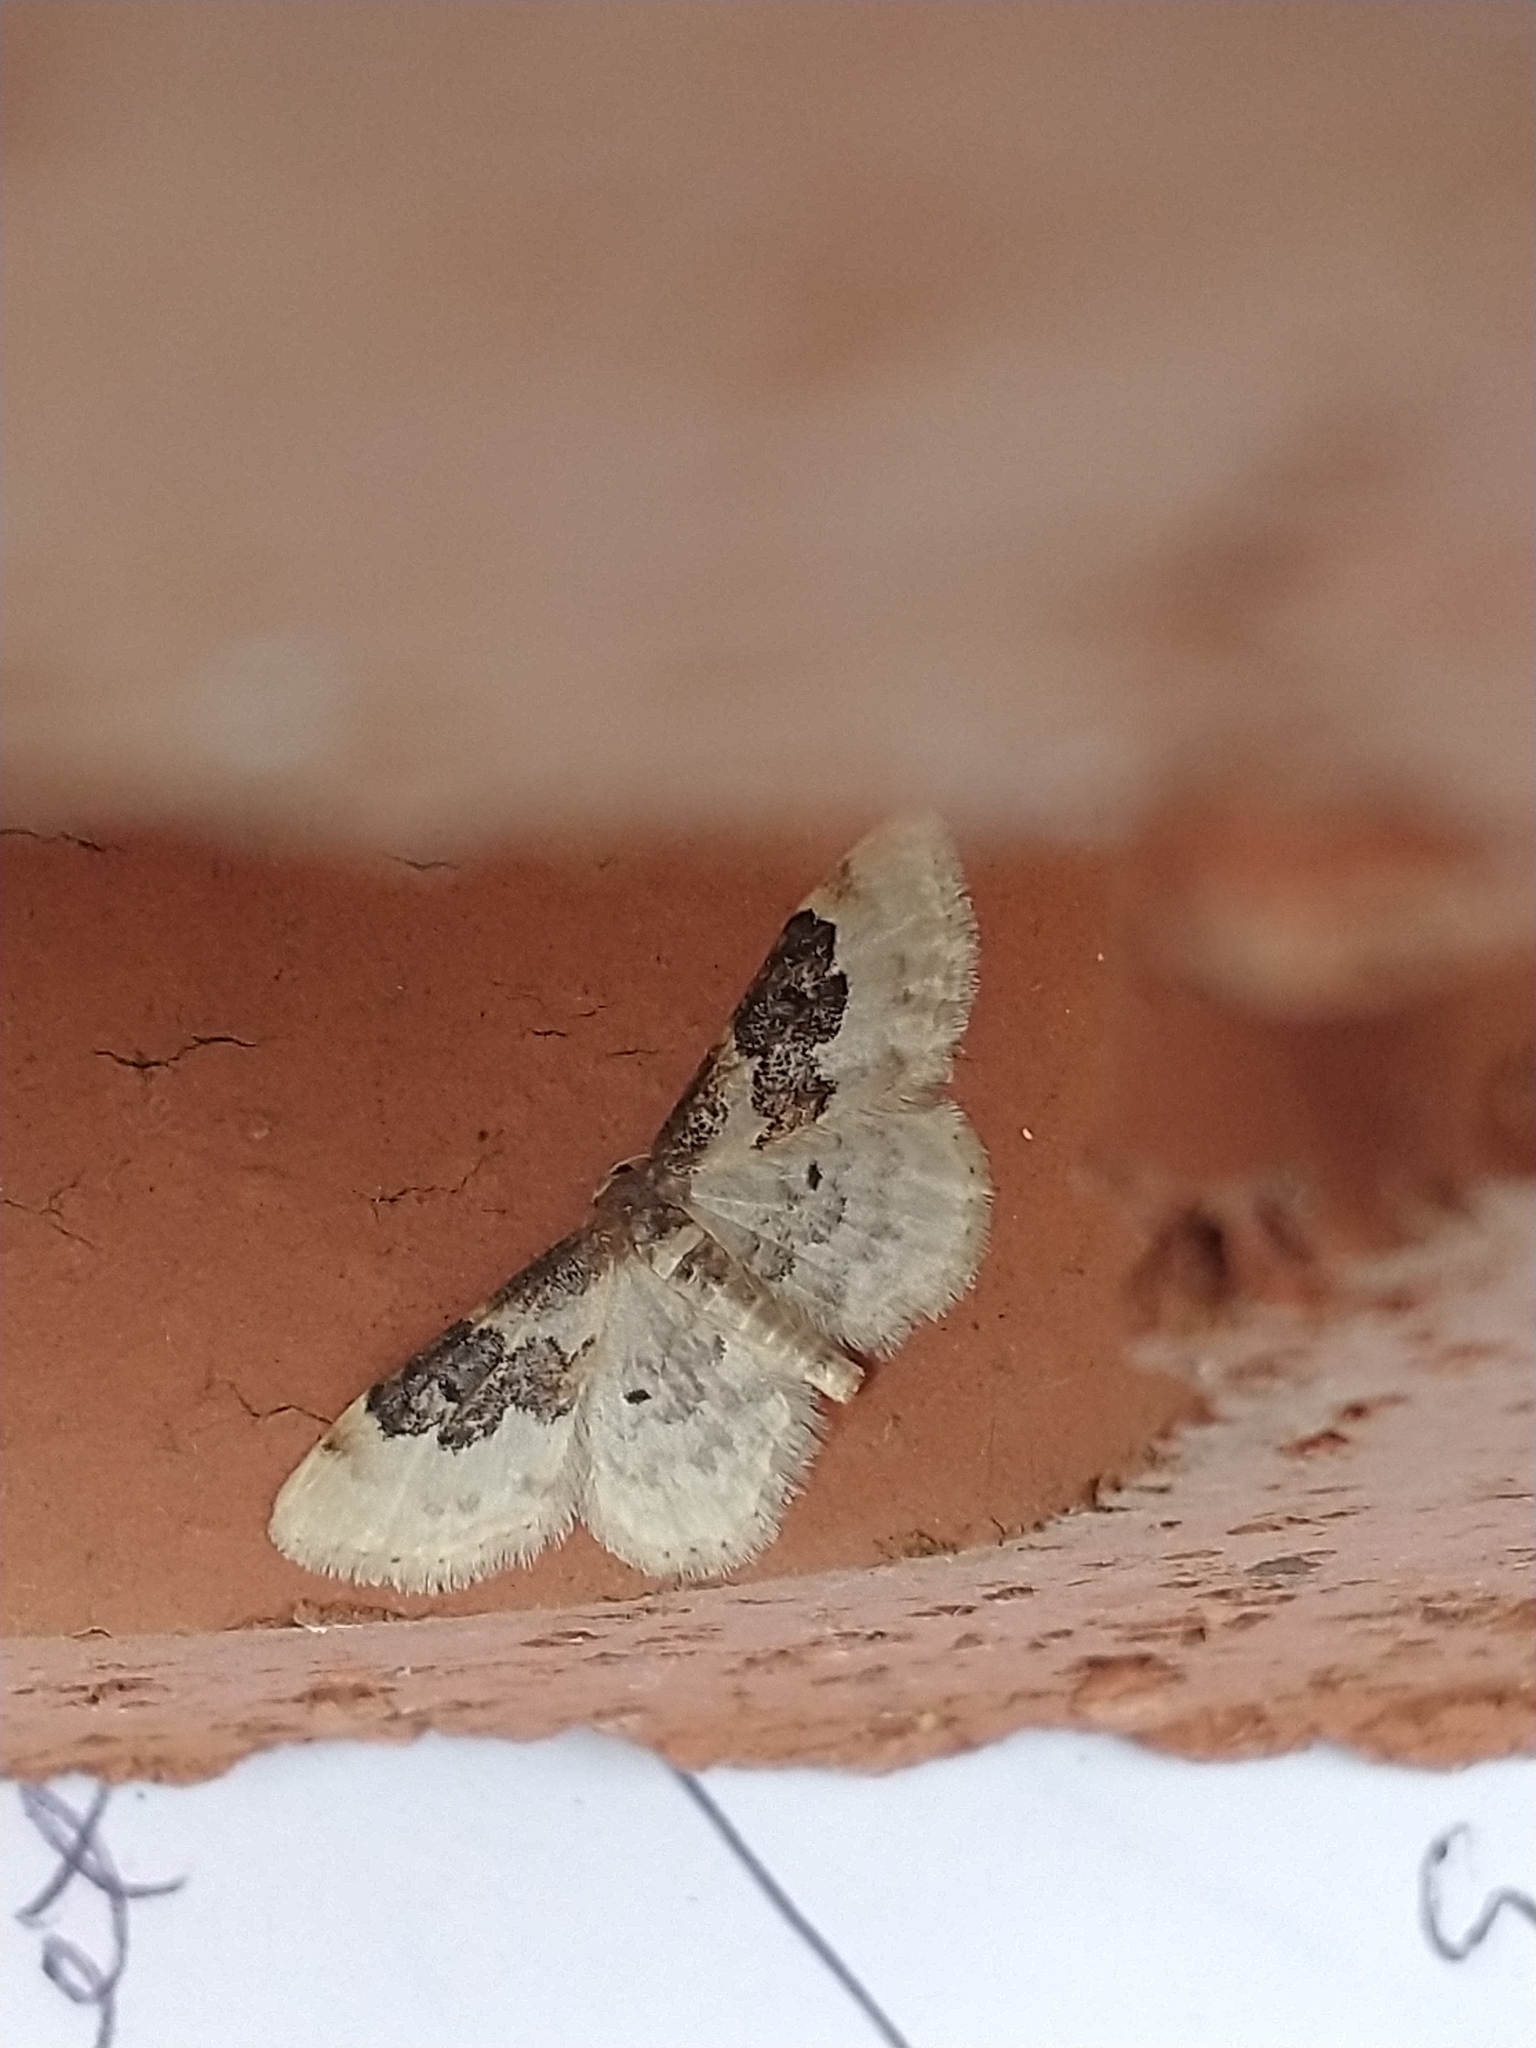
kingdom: Animalia
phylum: Arthropoda
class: Insecta
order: Lepidoptera
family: Geometridae
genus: Idaea
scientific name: Idaea rusticata
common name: Least carpet
